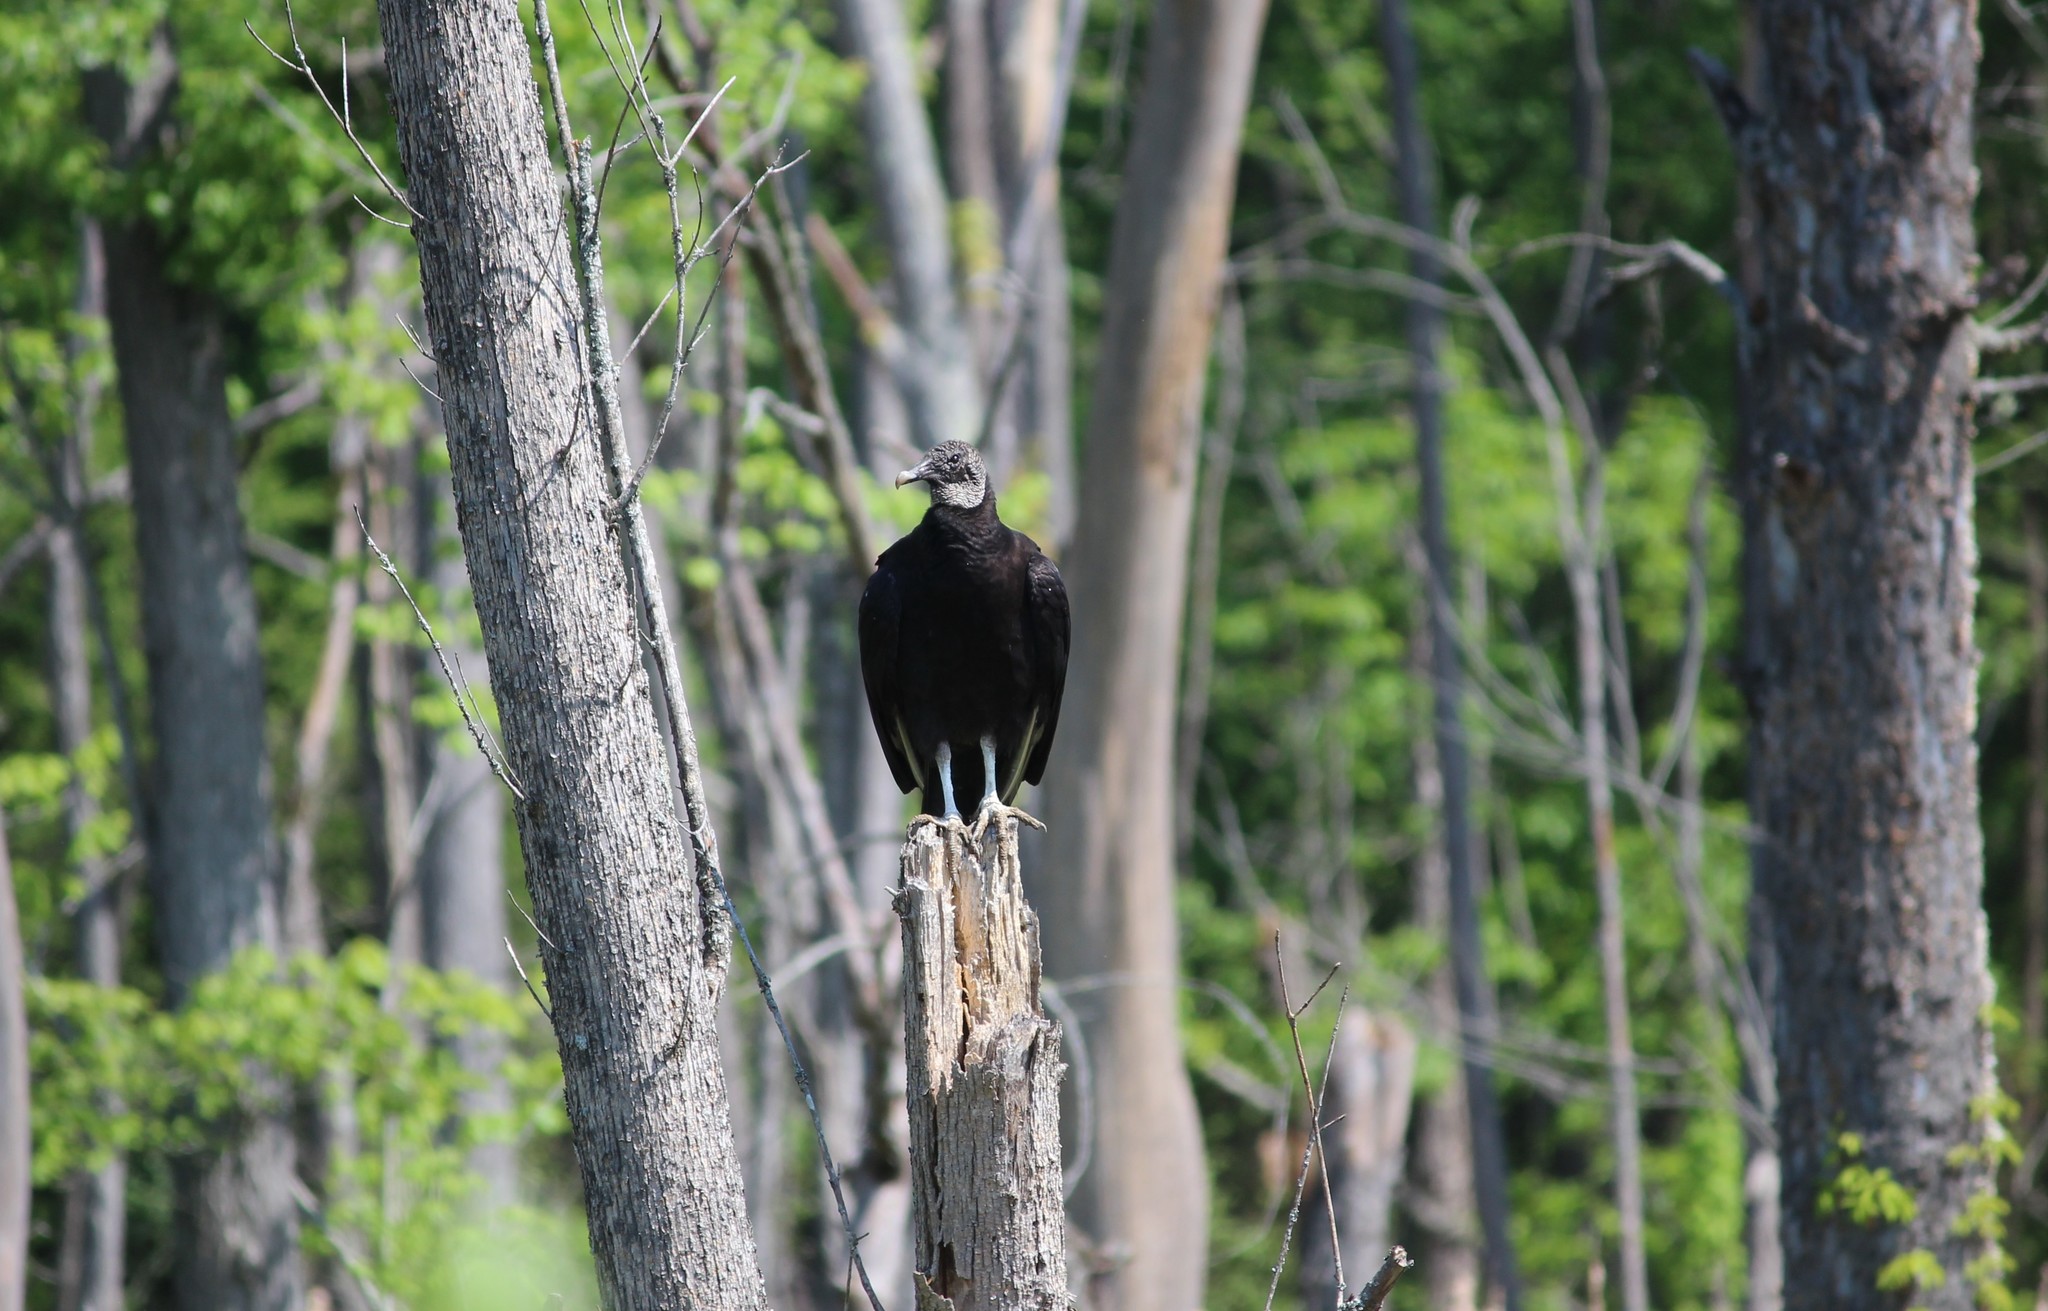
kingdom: Animalia
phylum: Chordata
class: Aves
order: Accipitriformes
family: Cathartidae
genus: Coragyps
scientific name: Coragyps atratus
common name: Black vulture
